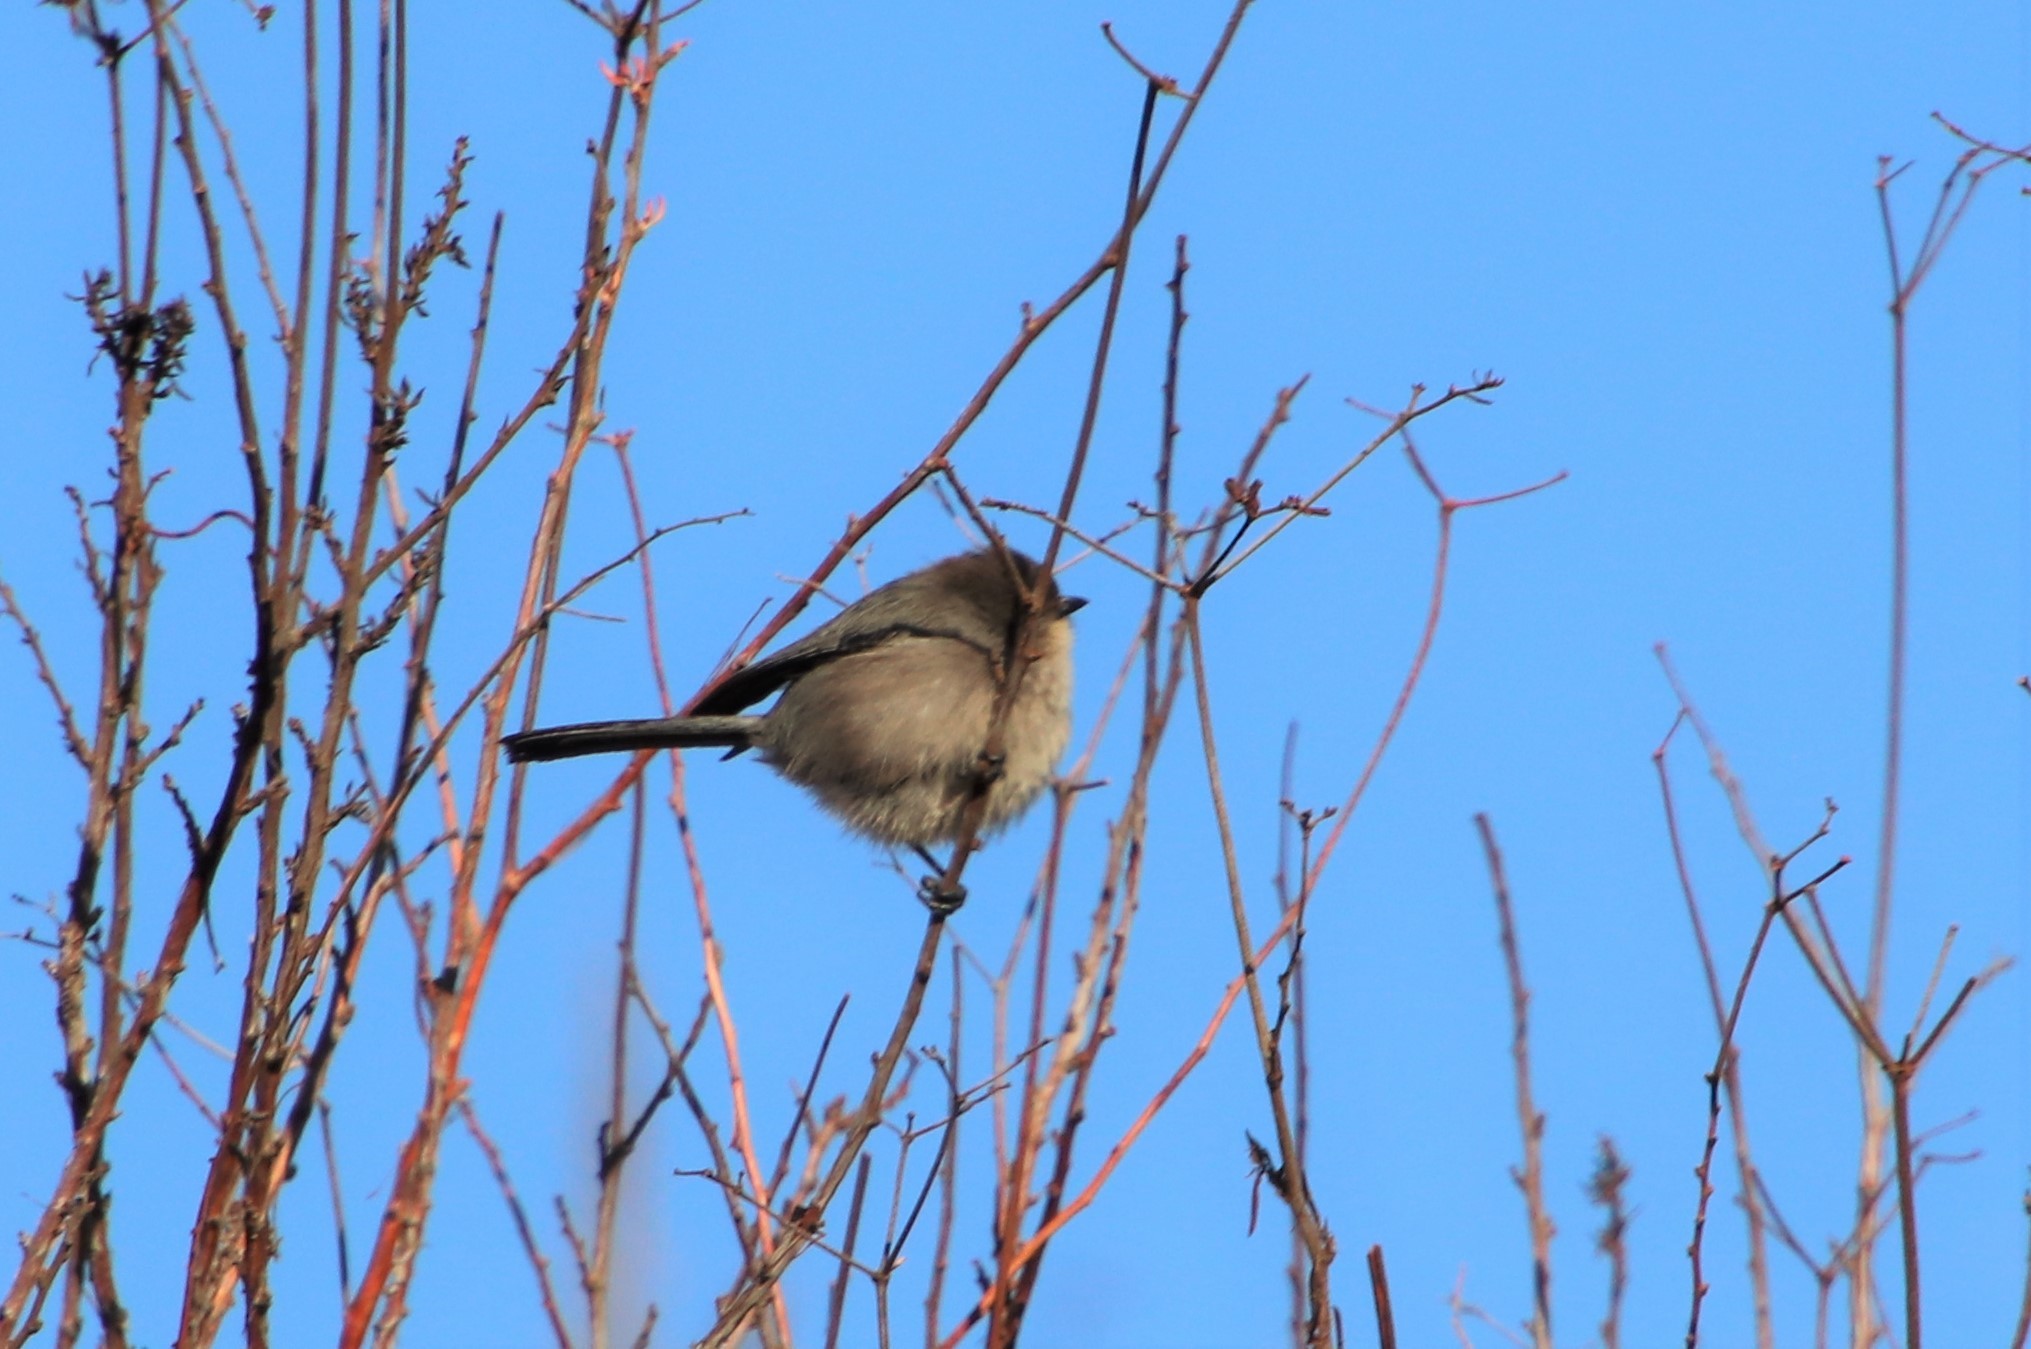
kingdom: Animalia
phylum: Chordata
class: Aves
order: Passeriformes
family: Aegithalidae
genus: Psaltriparus
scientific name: Psaltriparus minimus
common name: American bushtit
